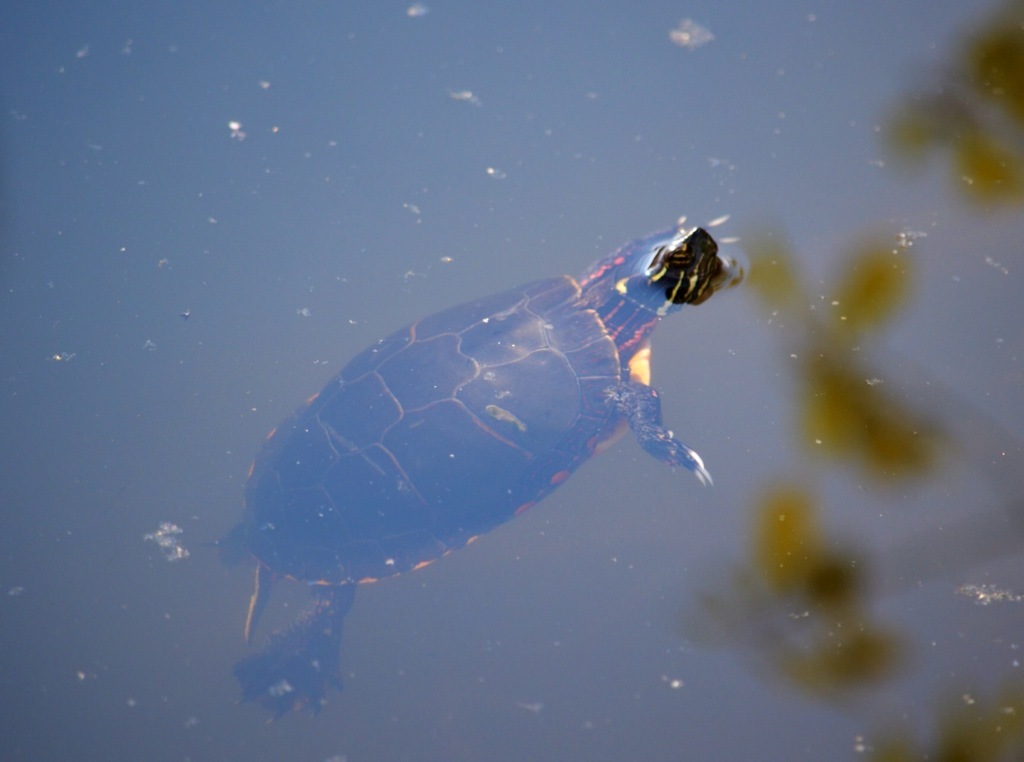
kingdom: Animalia
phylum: Chordata
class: Testudines
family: Emydidae
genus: Chrysemys
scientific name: Chrysemys picta
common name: Painted turtle
